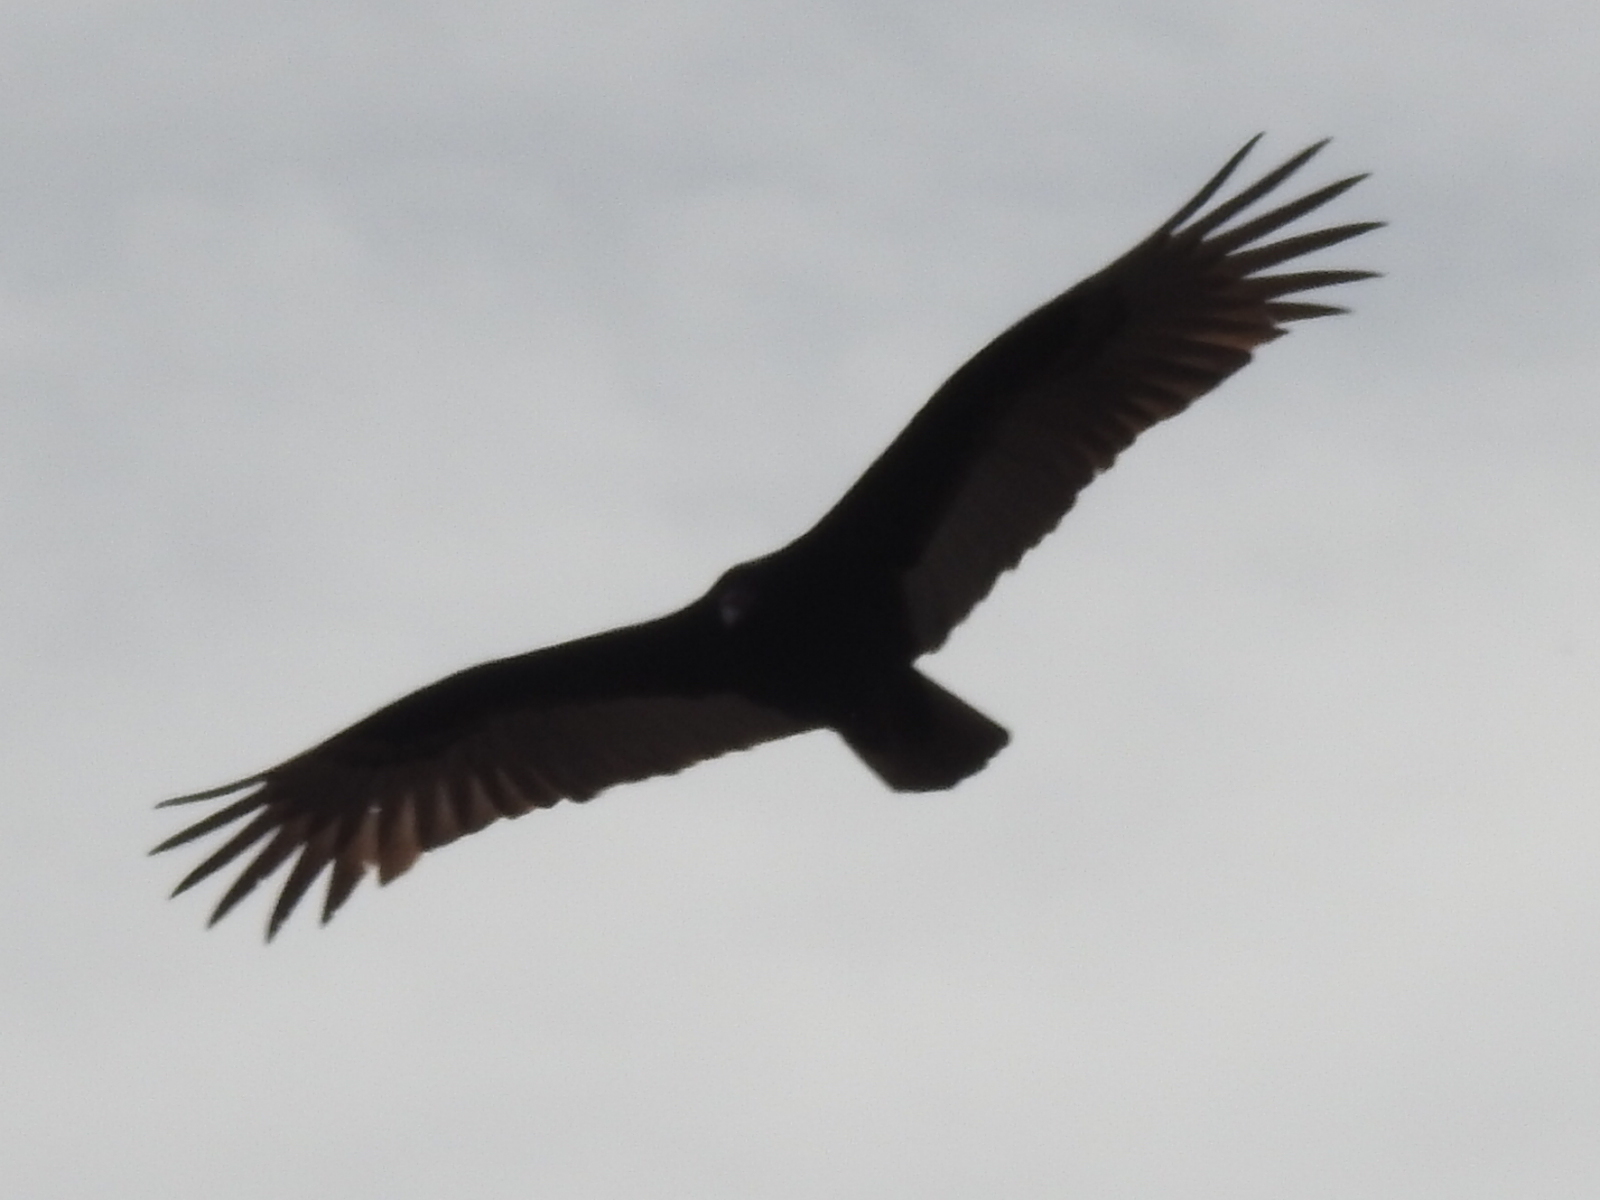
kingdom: Animalia
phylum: Chordata
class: Aves
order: Accipitriformes
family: Cathartidae
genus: Cathartes
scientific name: Cathartes aura
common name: Turkey vulture
